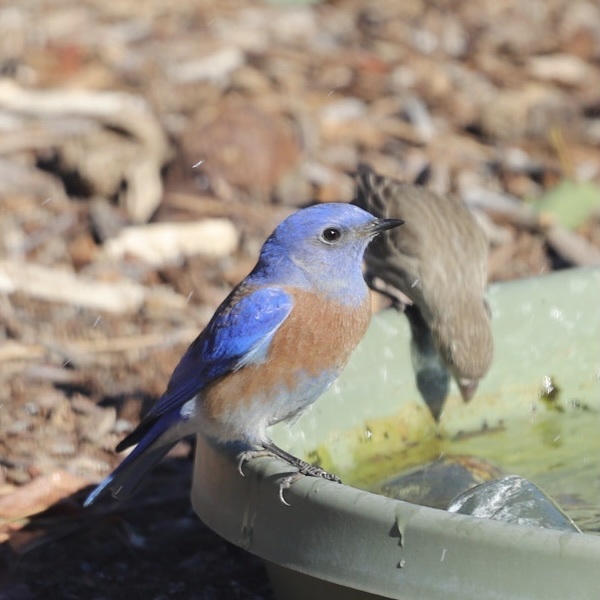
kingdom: Animalia
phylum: Chordata
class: Aves
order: Passeriformes
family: Turdidae
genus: Sialia
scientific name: Sialia mexicana
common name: Western bluebird
